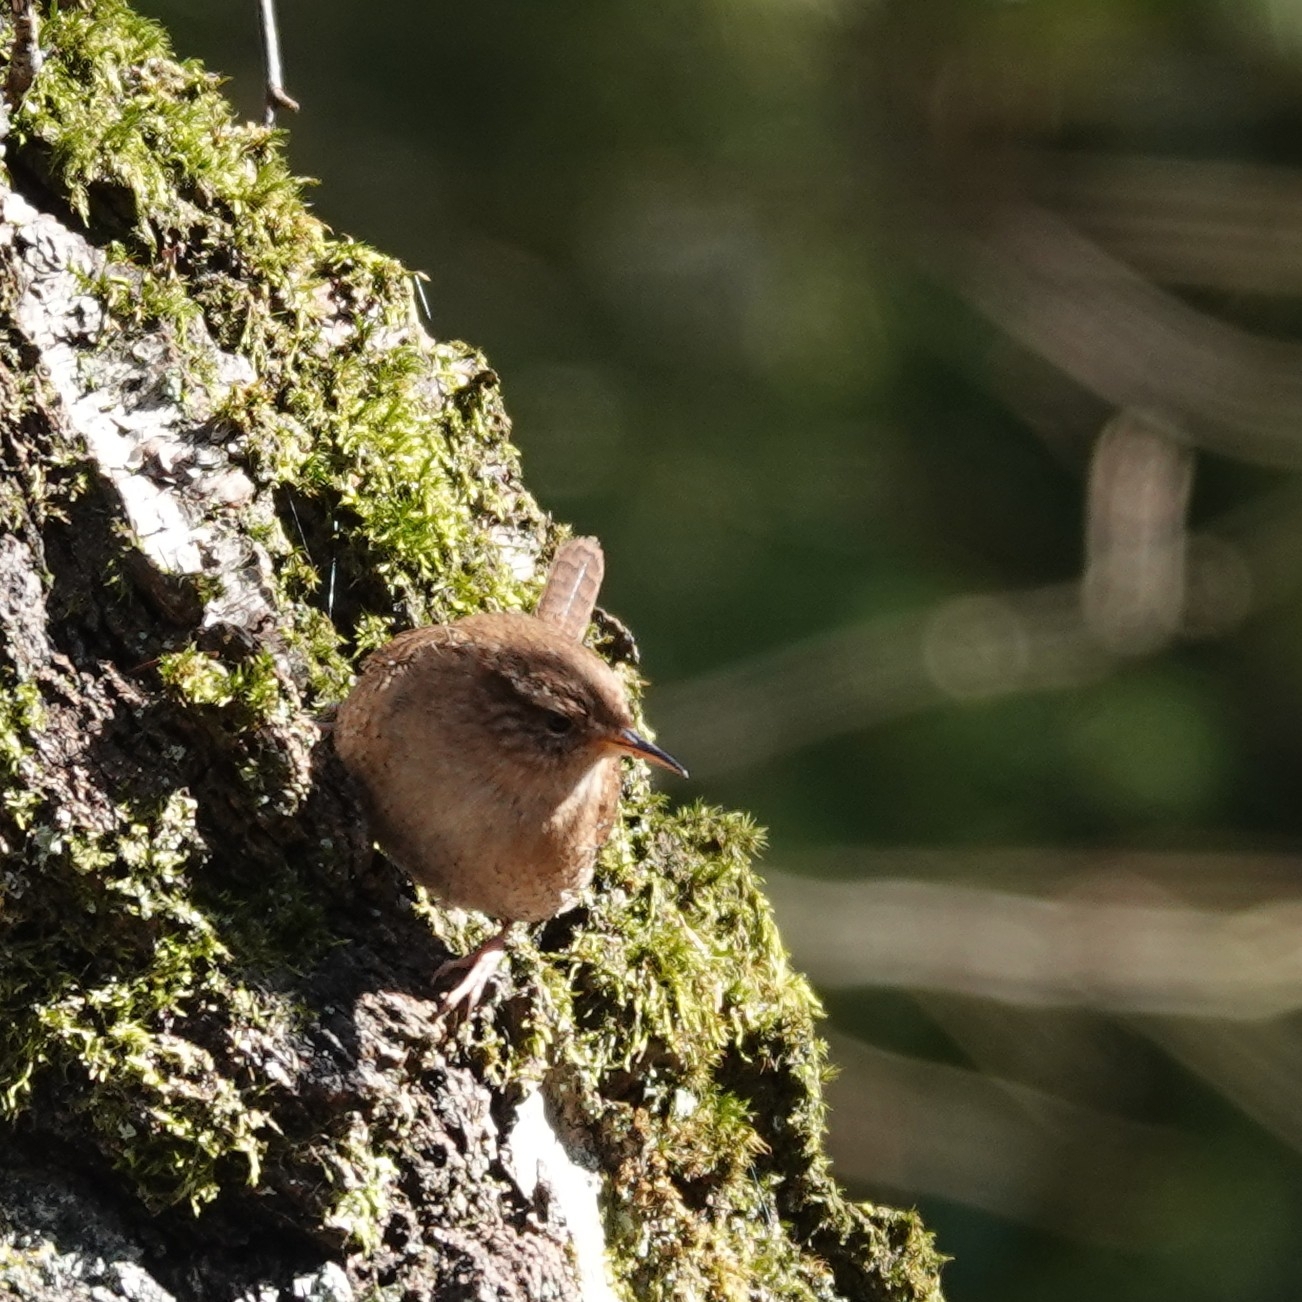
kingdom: Animalia
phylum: Chordata
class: Aves
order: Passeriformes
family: Troglodytidae
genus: Troglodytes
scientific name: Troglodytes troglodytes
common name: Eurasian wren
